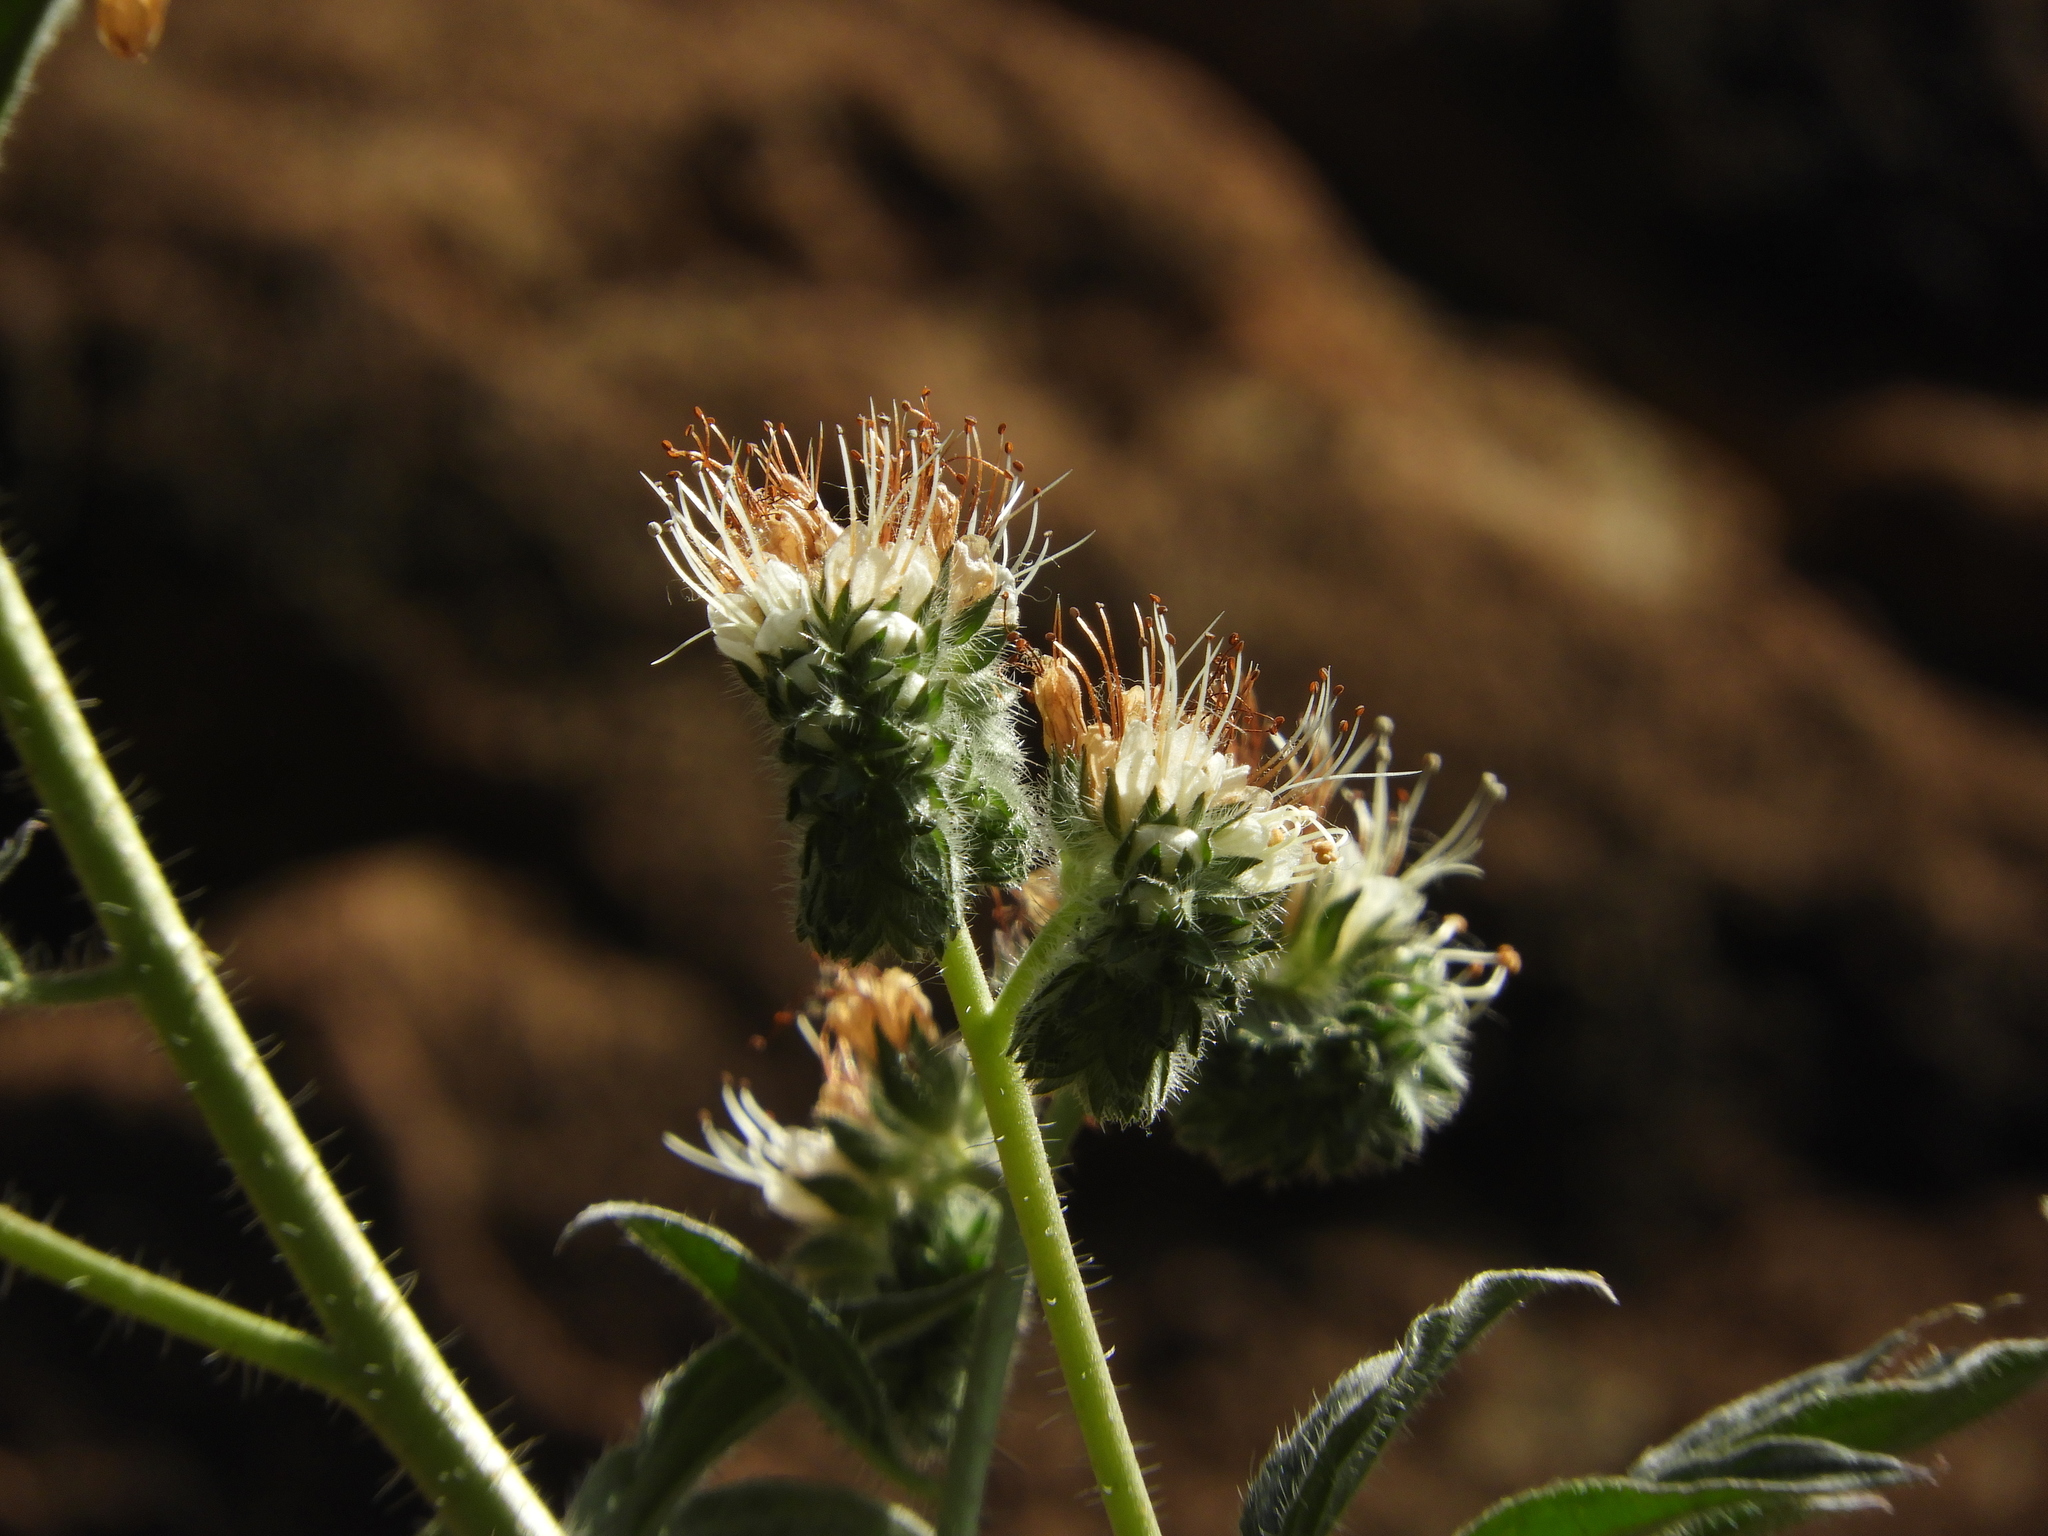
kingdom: Plantae
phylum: Tracheophyta
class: Magnoliopsida
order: Boraginales
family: Hydrophyllaceae
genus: Phacelia
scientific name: Phacelia imbricata
